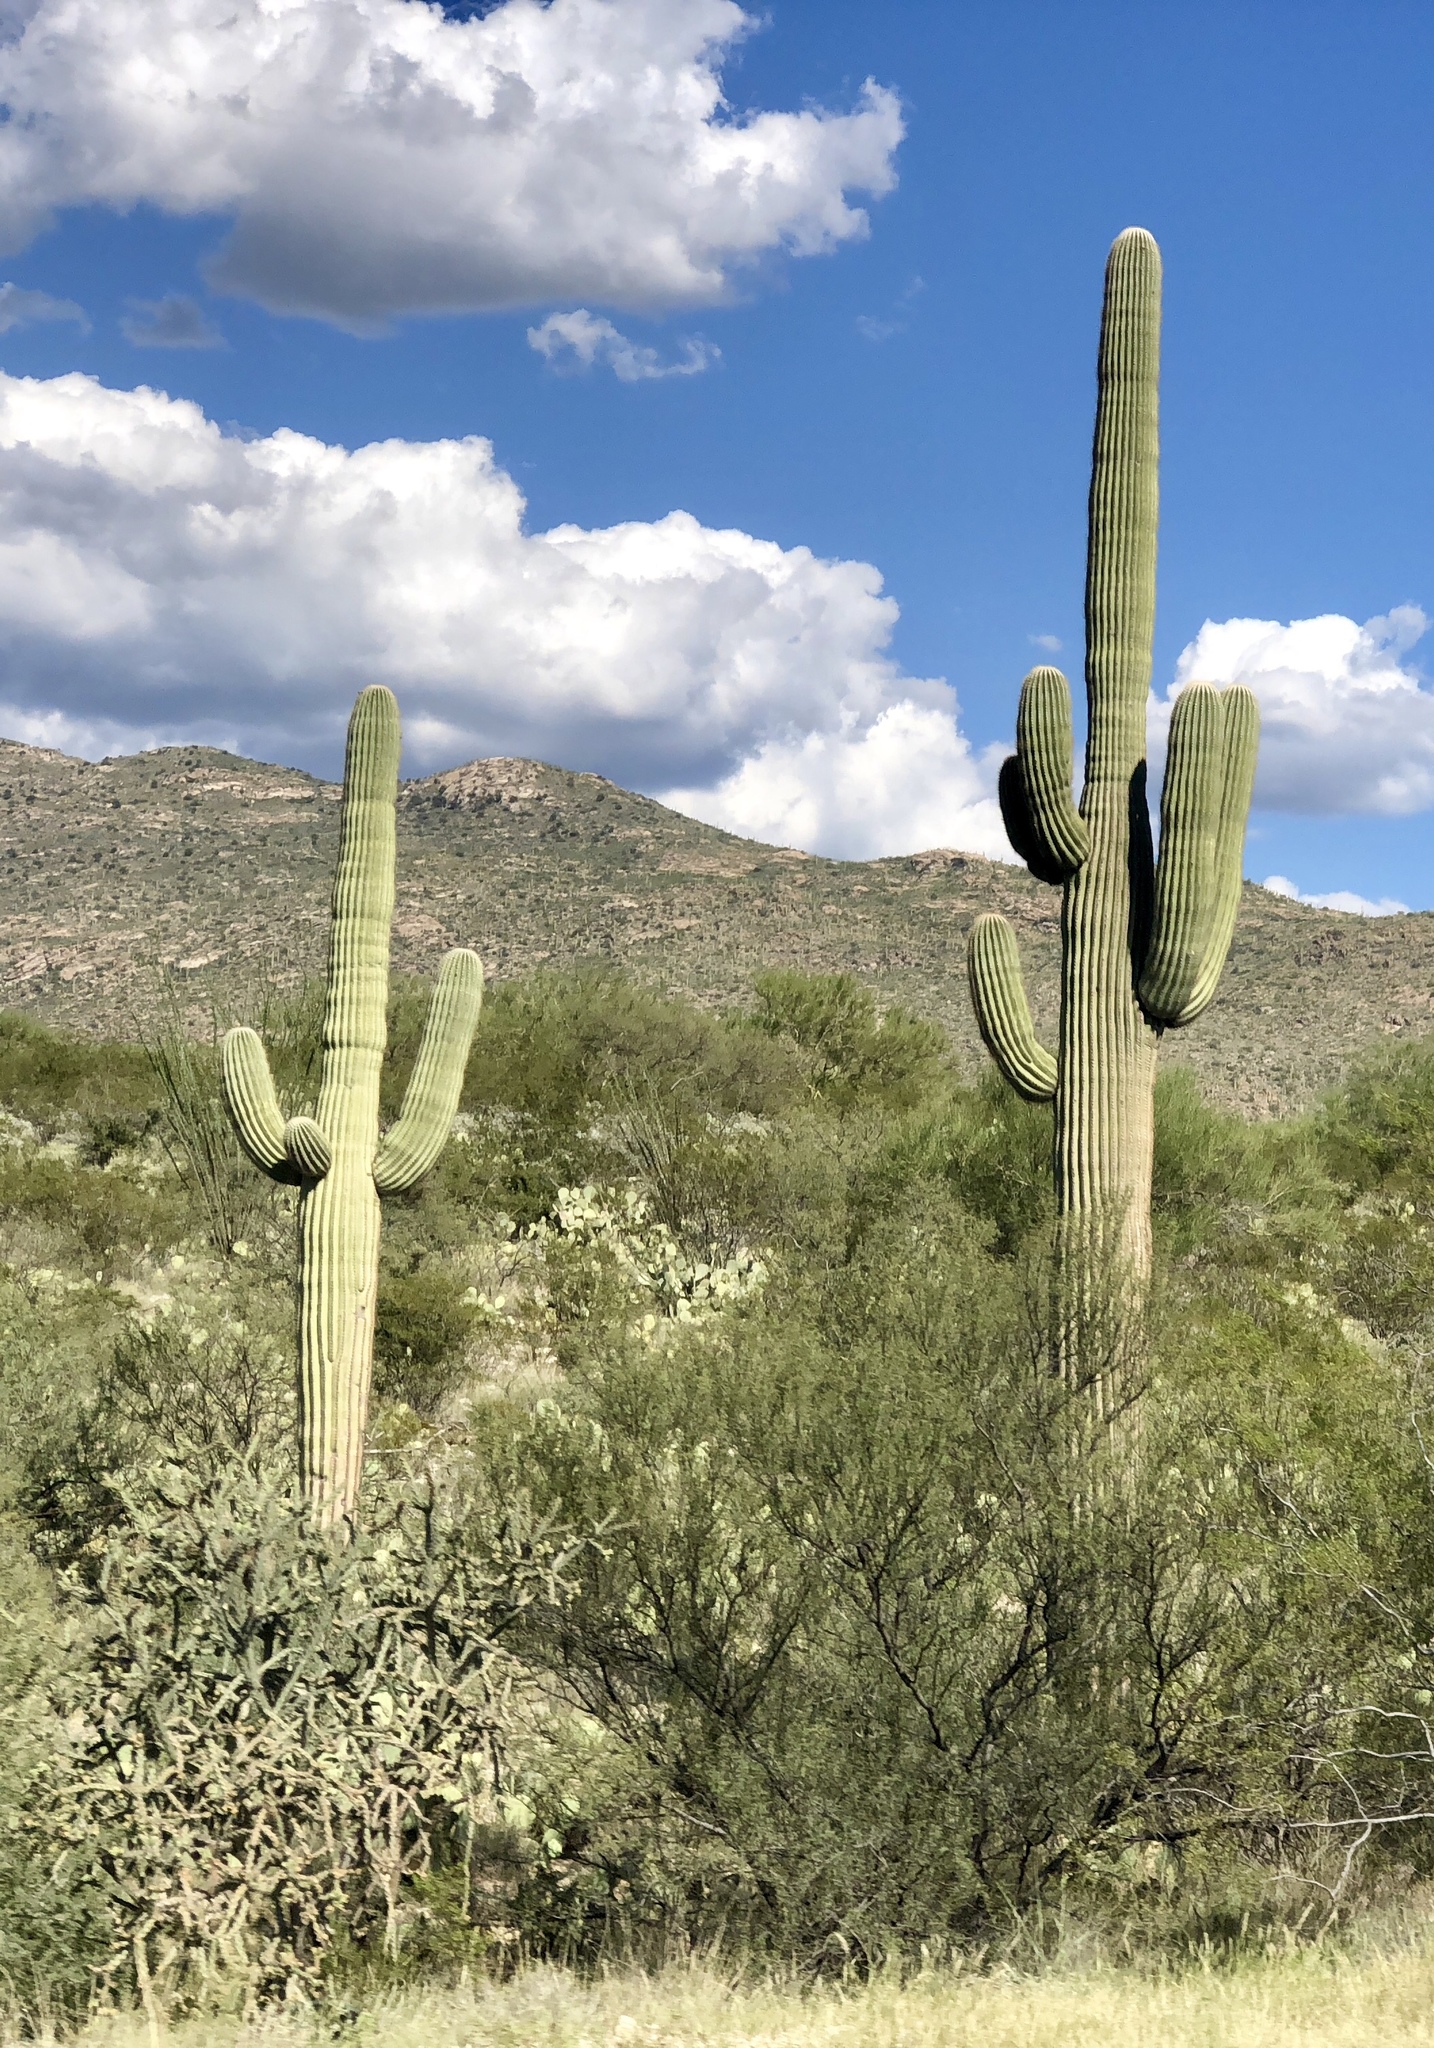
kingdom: Plantae
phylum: Tracheophyta
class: Magnoliopsida
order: Caryophyllales
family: Cactaceae
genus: Carnegiea
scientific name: Carnegiea gigantea
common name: Saguaro
